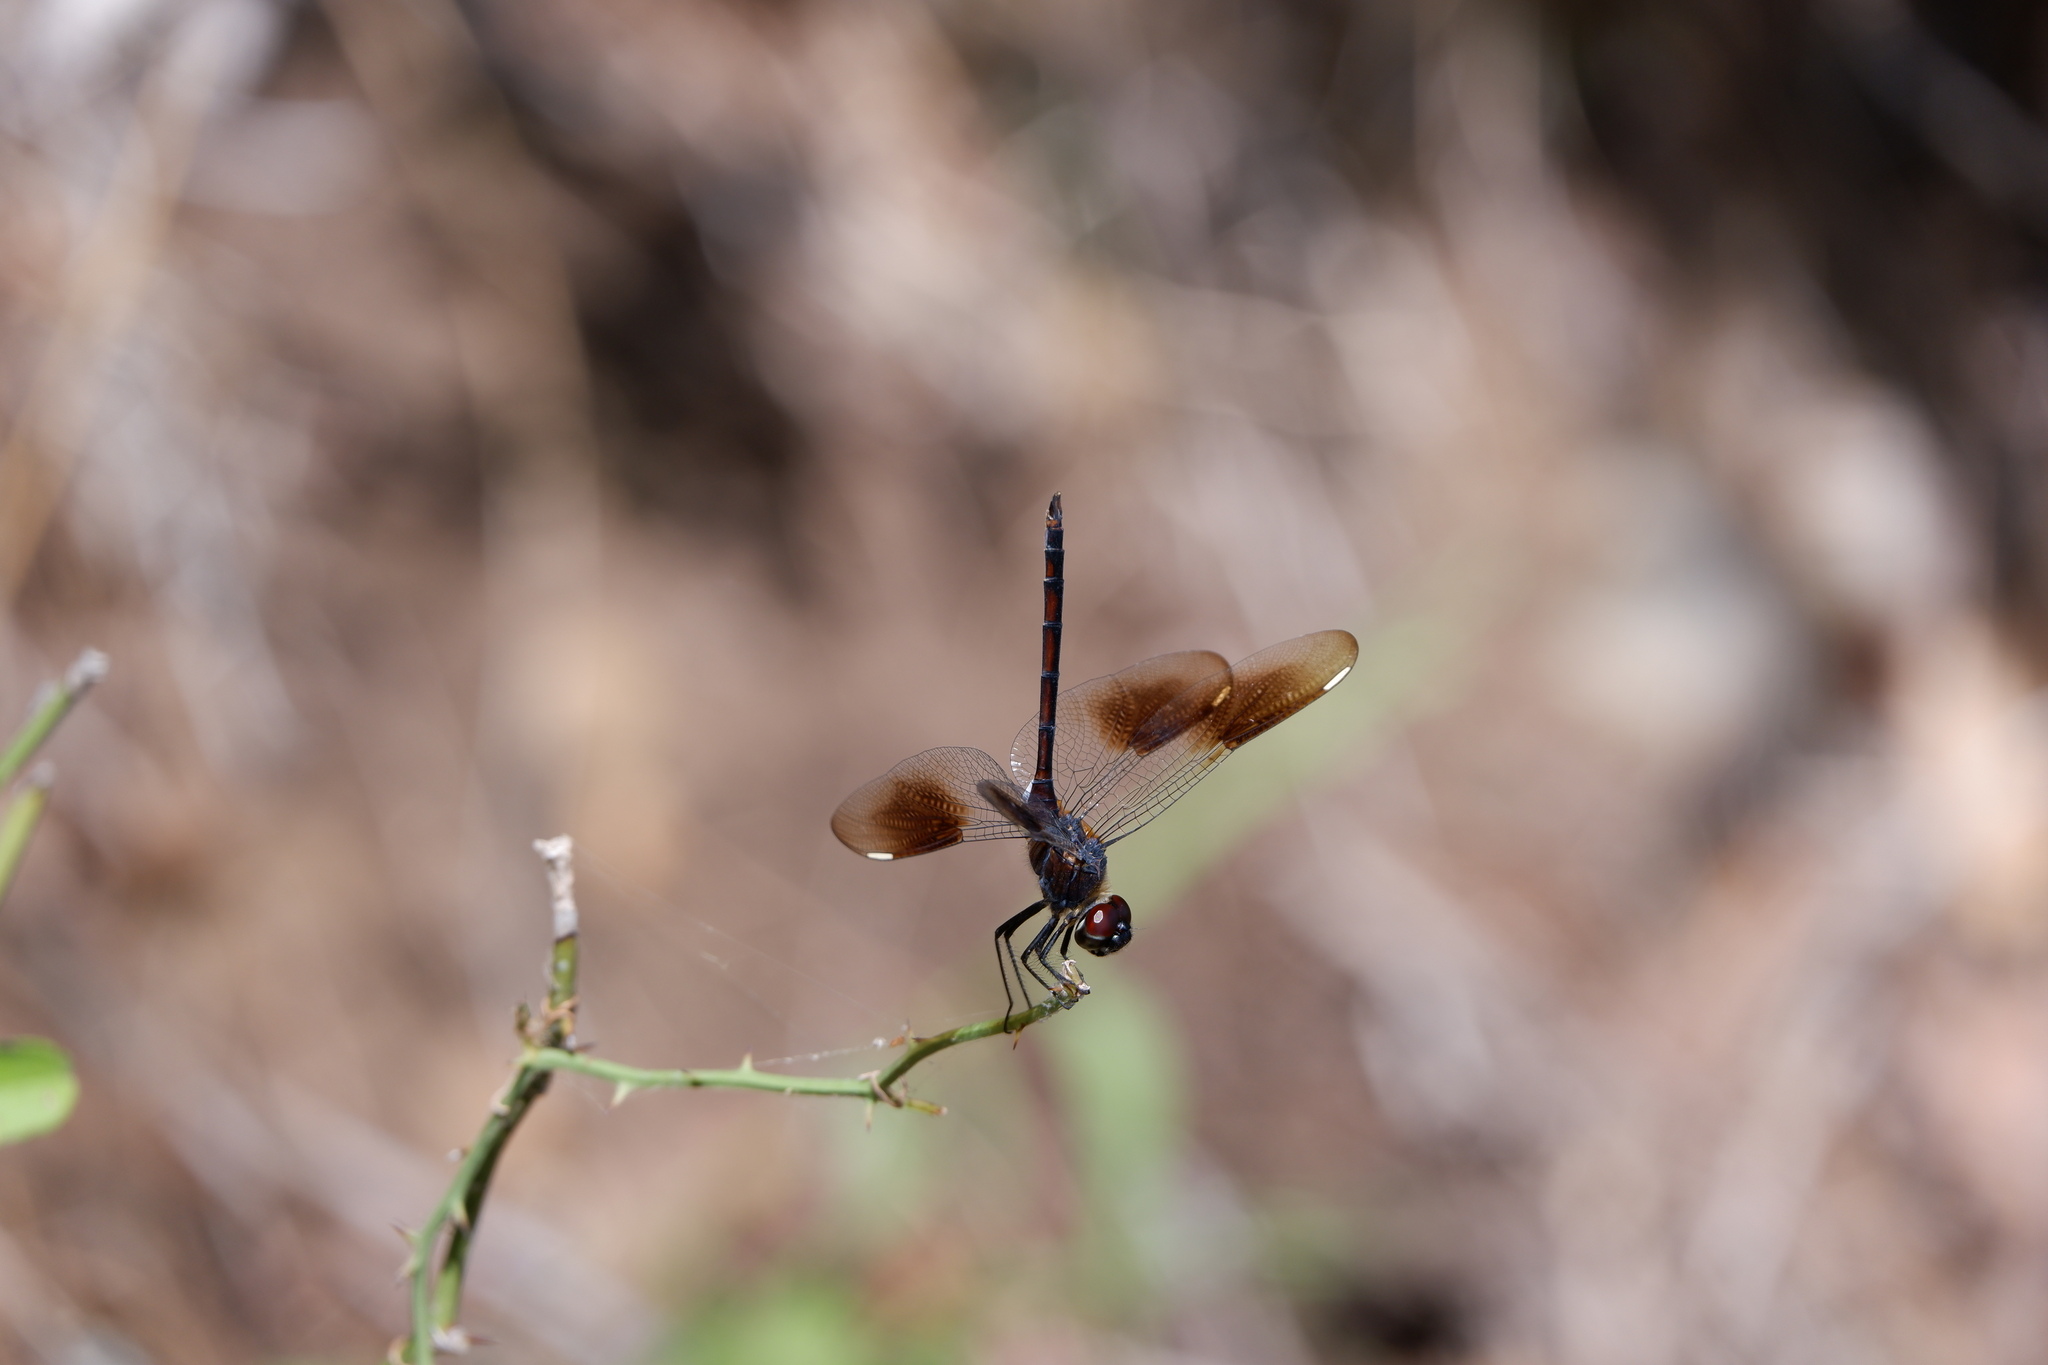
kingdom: Animalia
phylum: Arthropoda
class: Insecta
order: Odonata
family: Libellulidae
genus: Brachymesia
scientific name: Brachymesia gravida
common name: Four-spotted pennant
